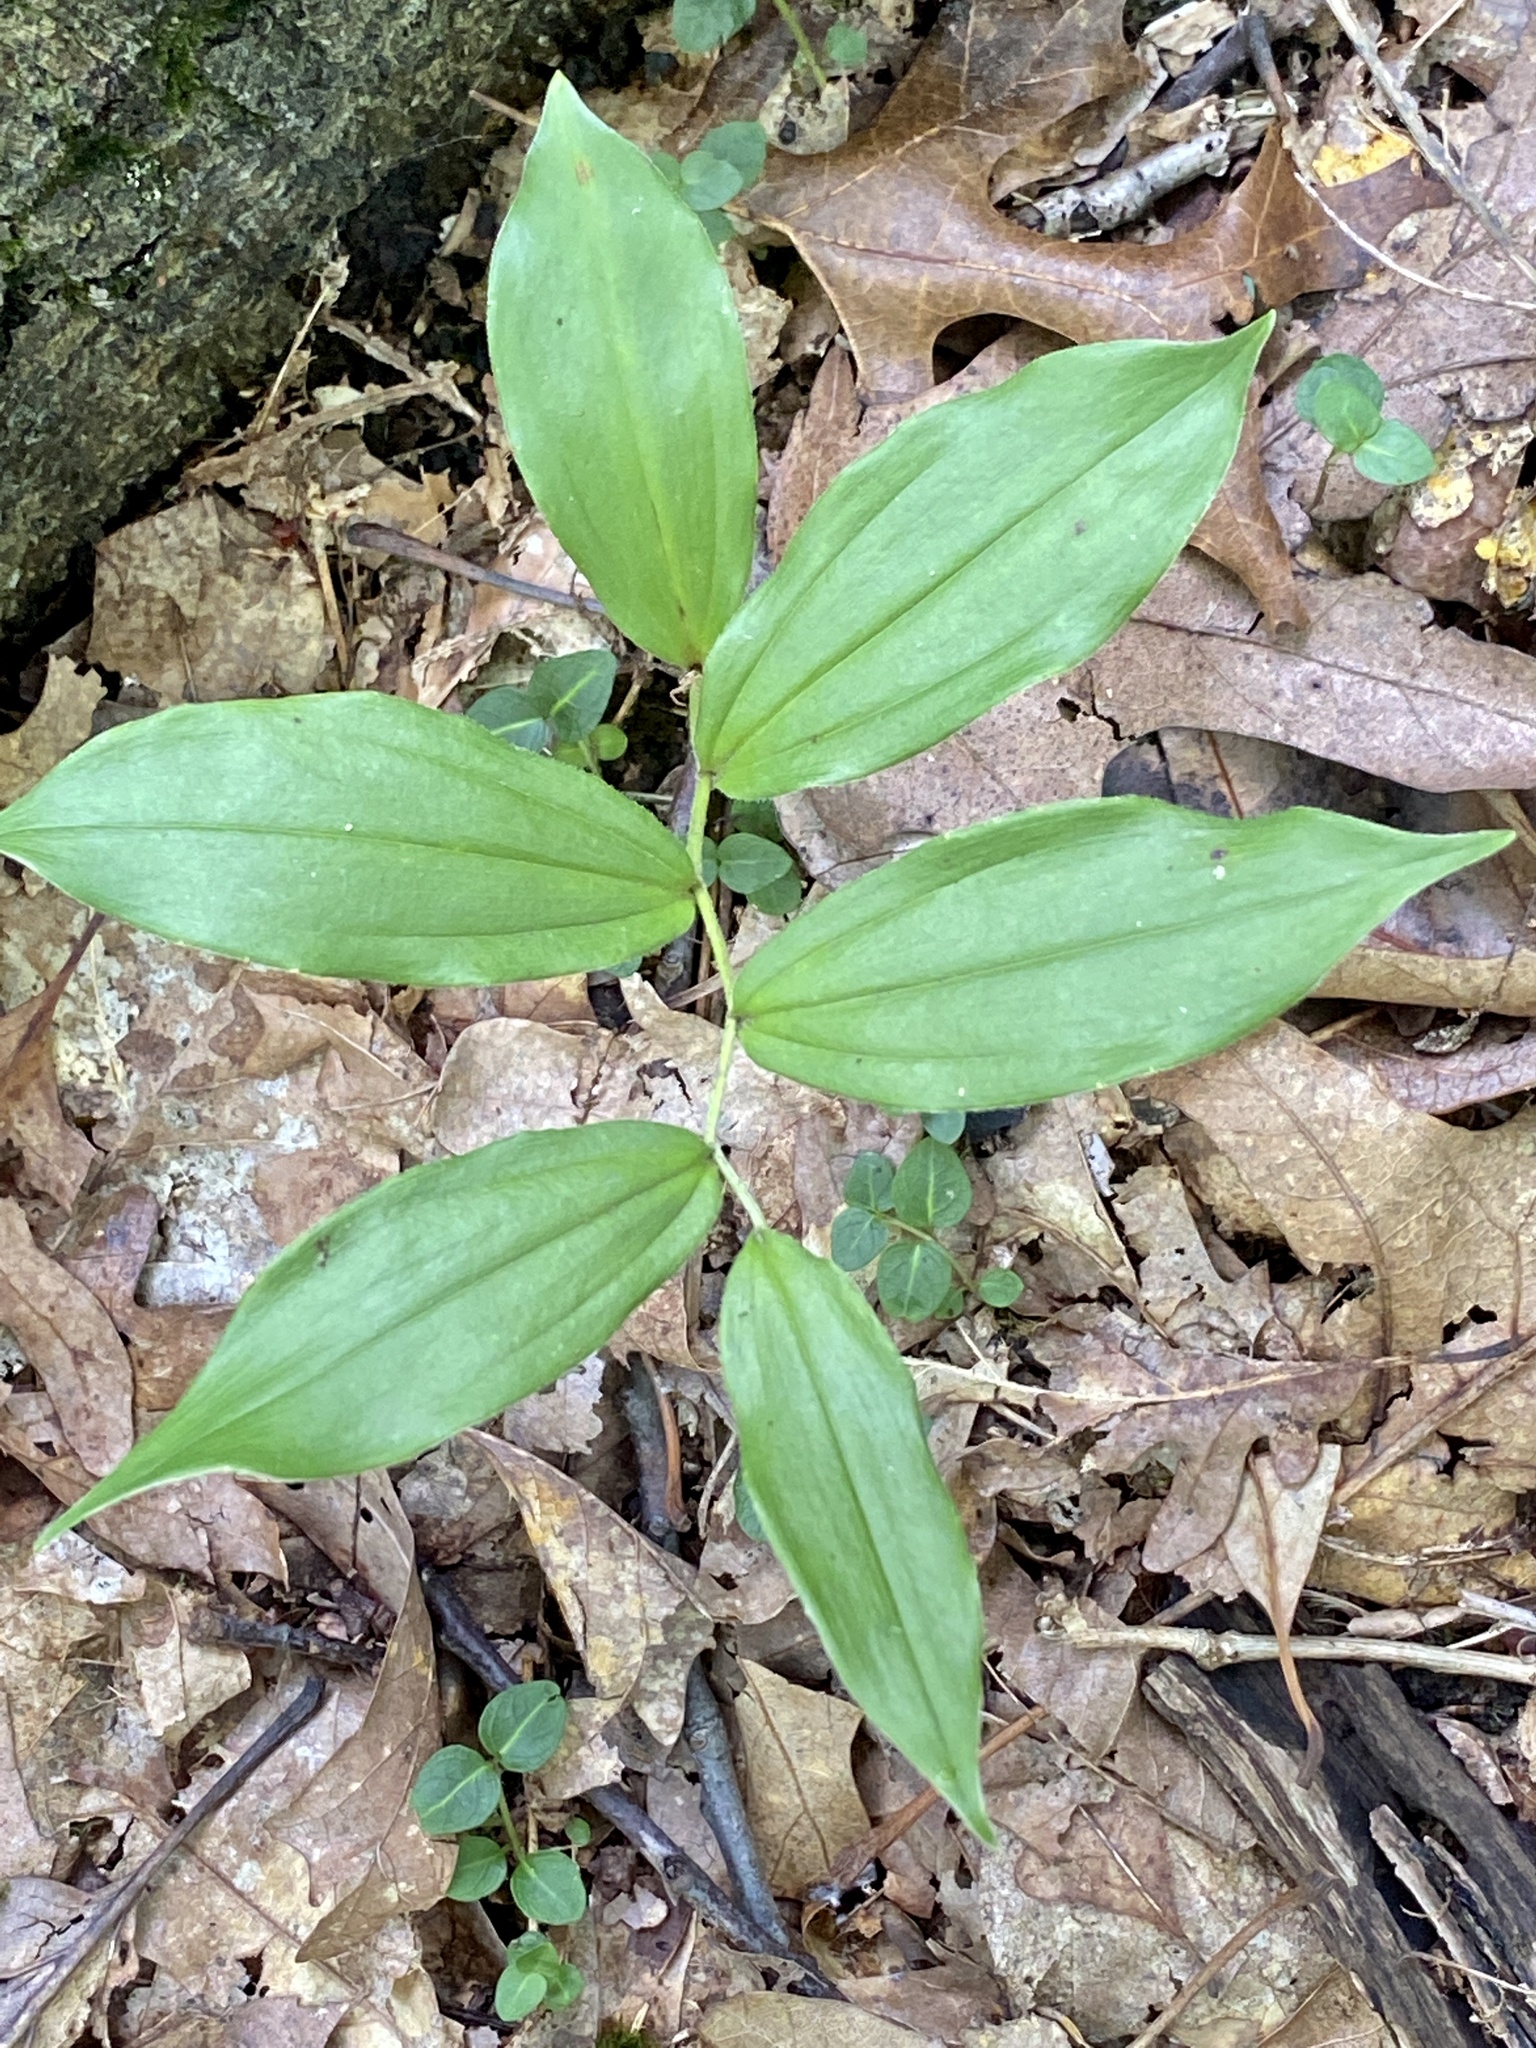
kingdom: Plantae
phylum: Tracheophyta
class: Liliopsida
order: Asparagales
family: Asparagaceae
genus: Maianthemum
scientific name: Maianthemum racemosum
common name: False spikenard
